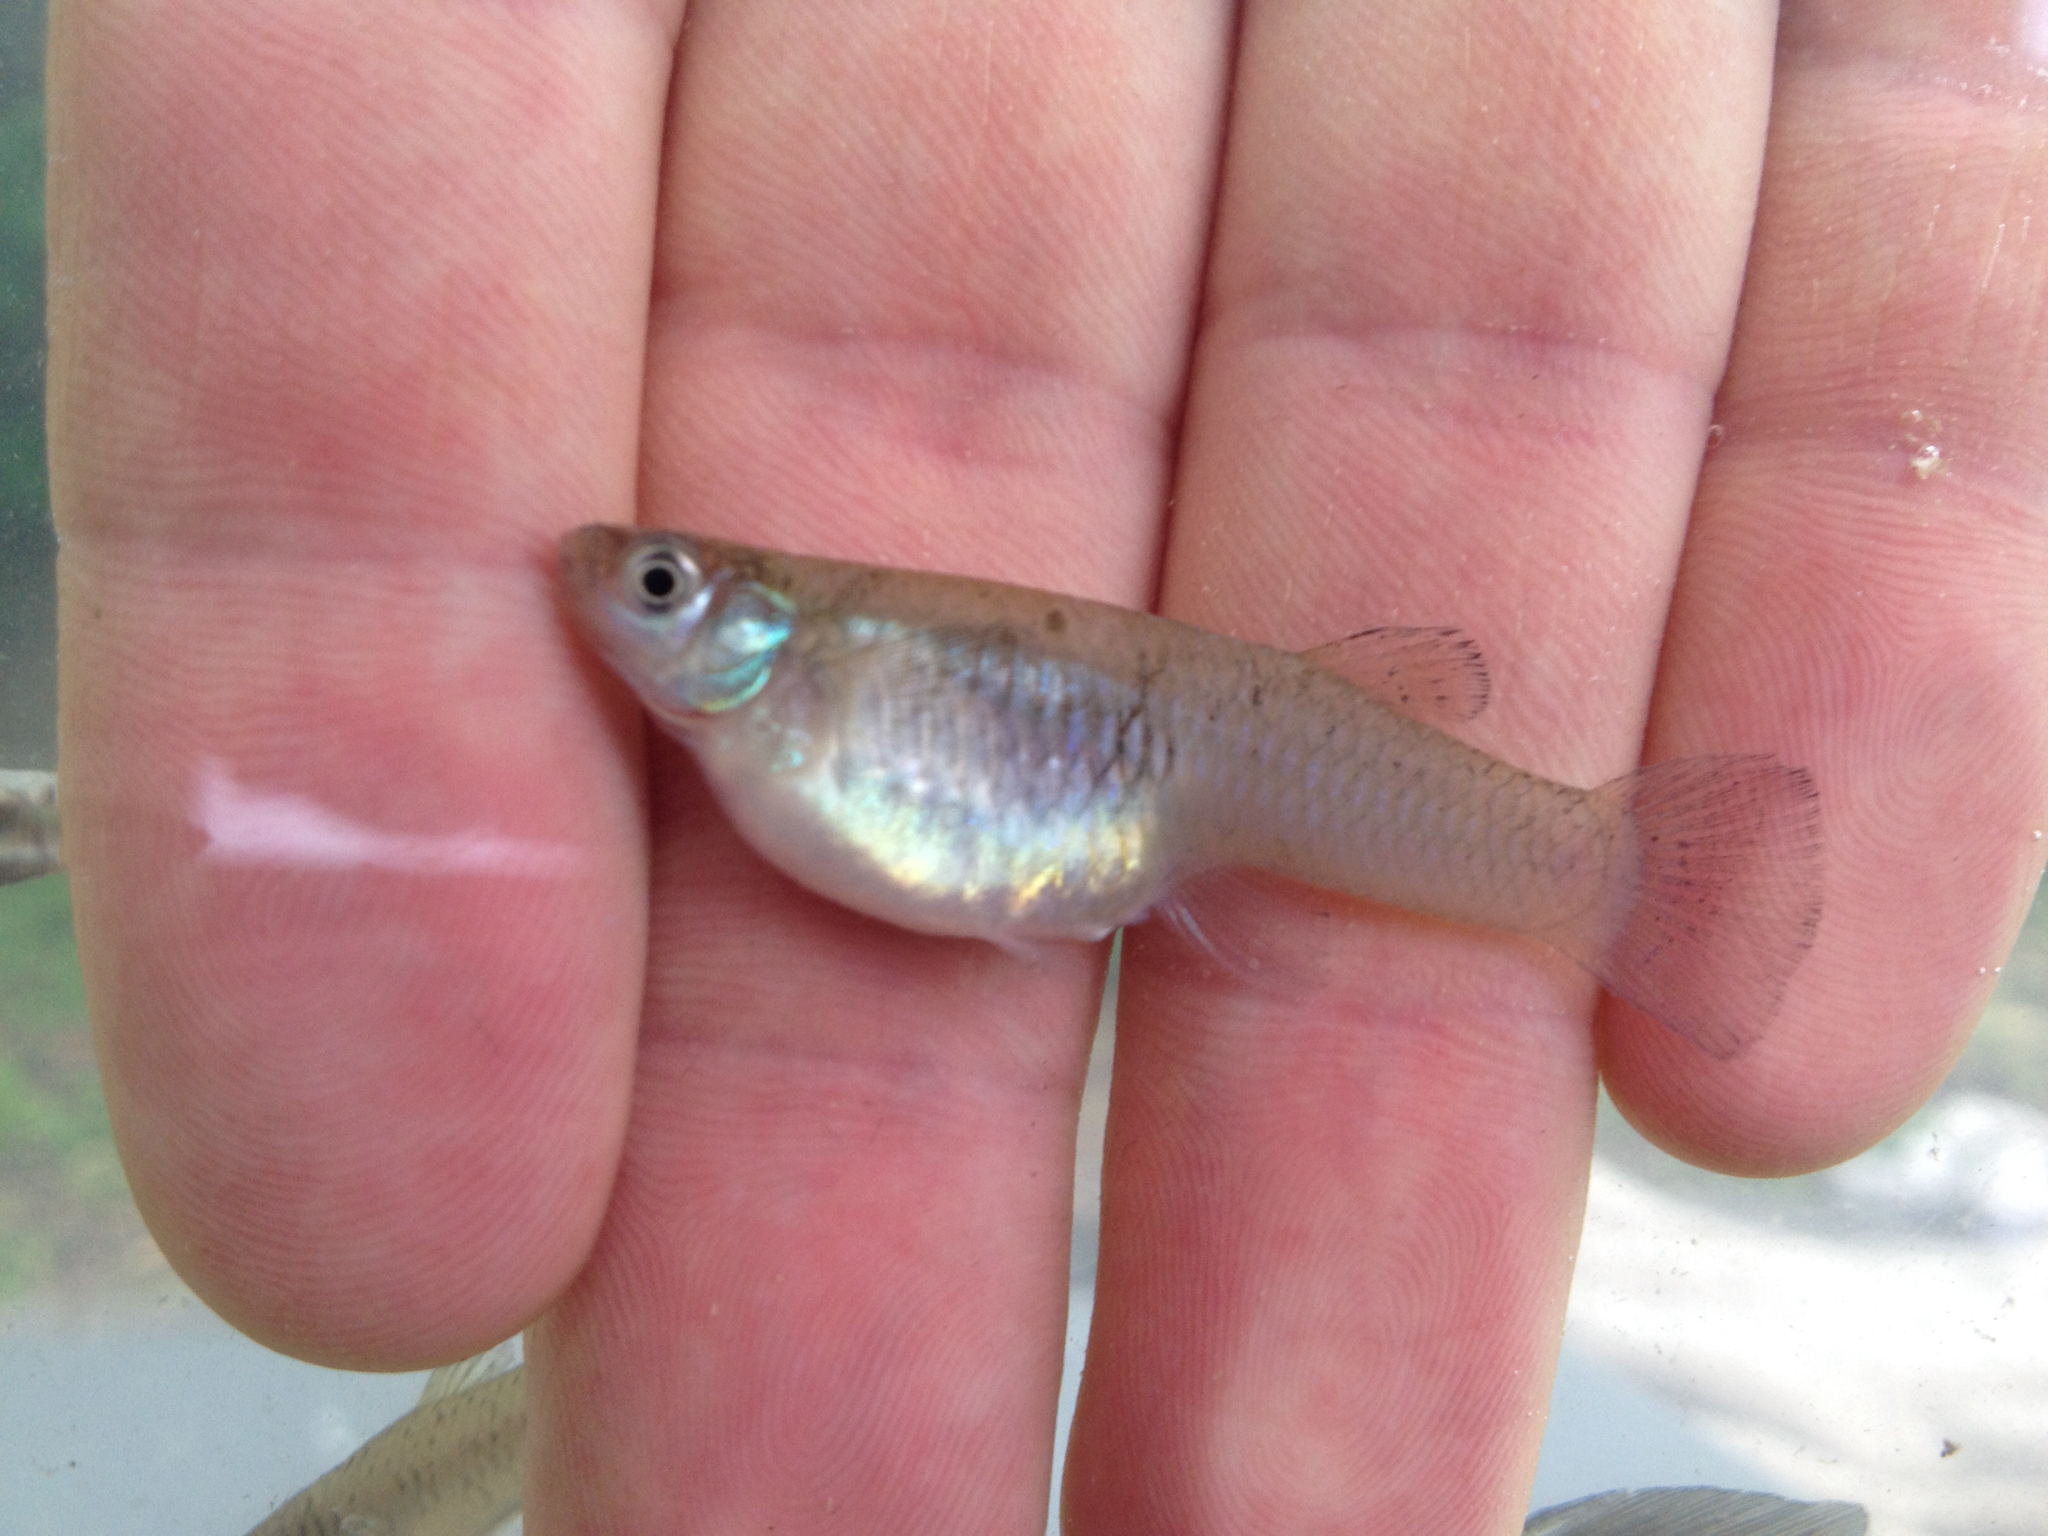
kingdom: Animalia
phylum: Chordata
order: Cyprinodontiformes
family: Poeciliidae
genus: Gambusia
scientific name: Gambusia affinis
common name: Mosquitofish
